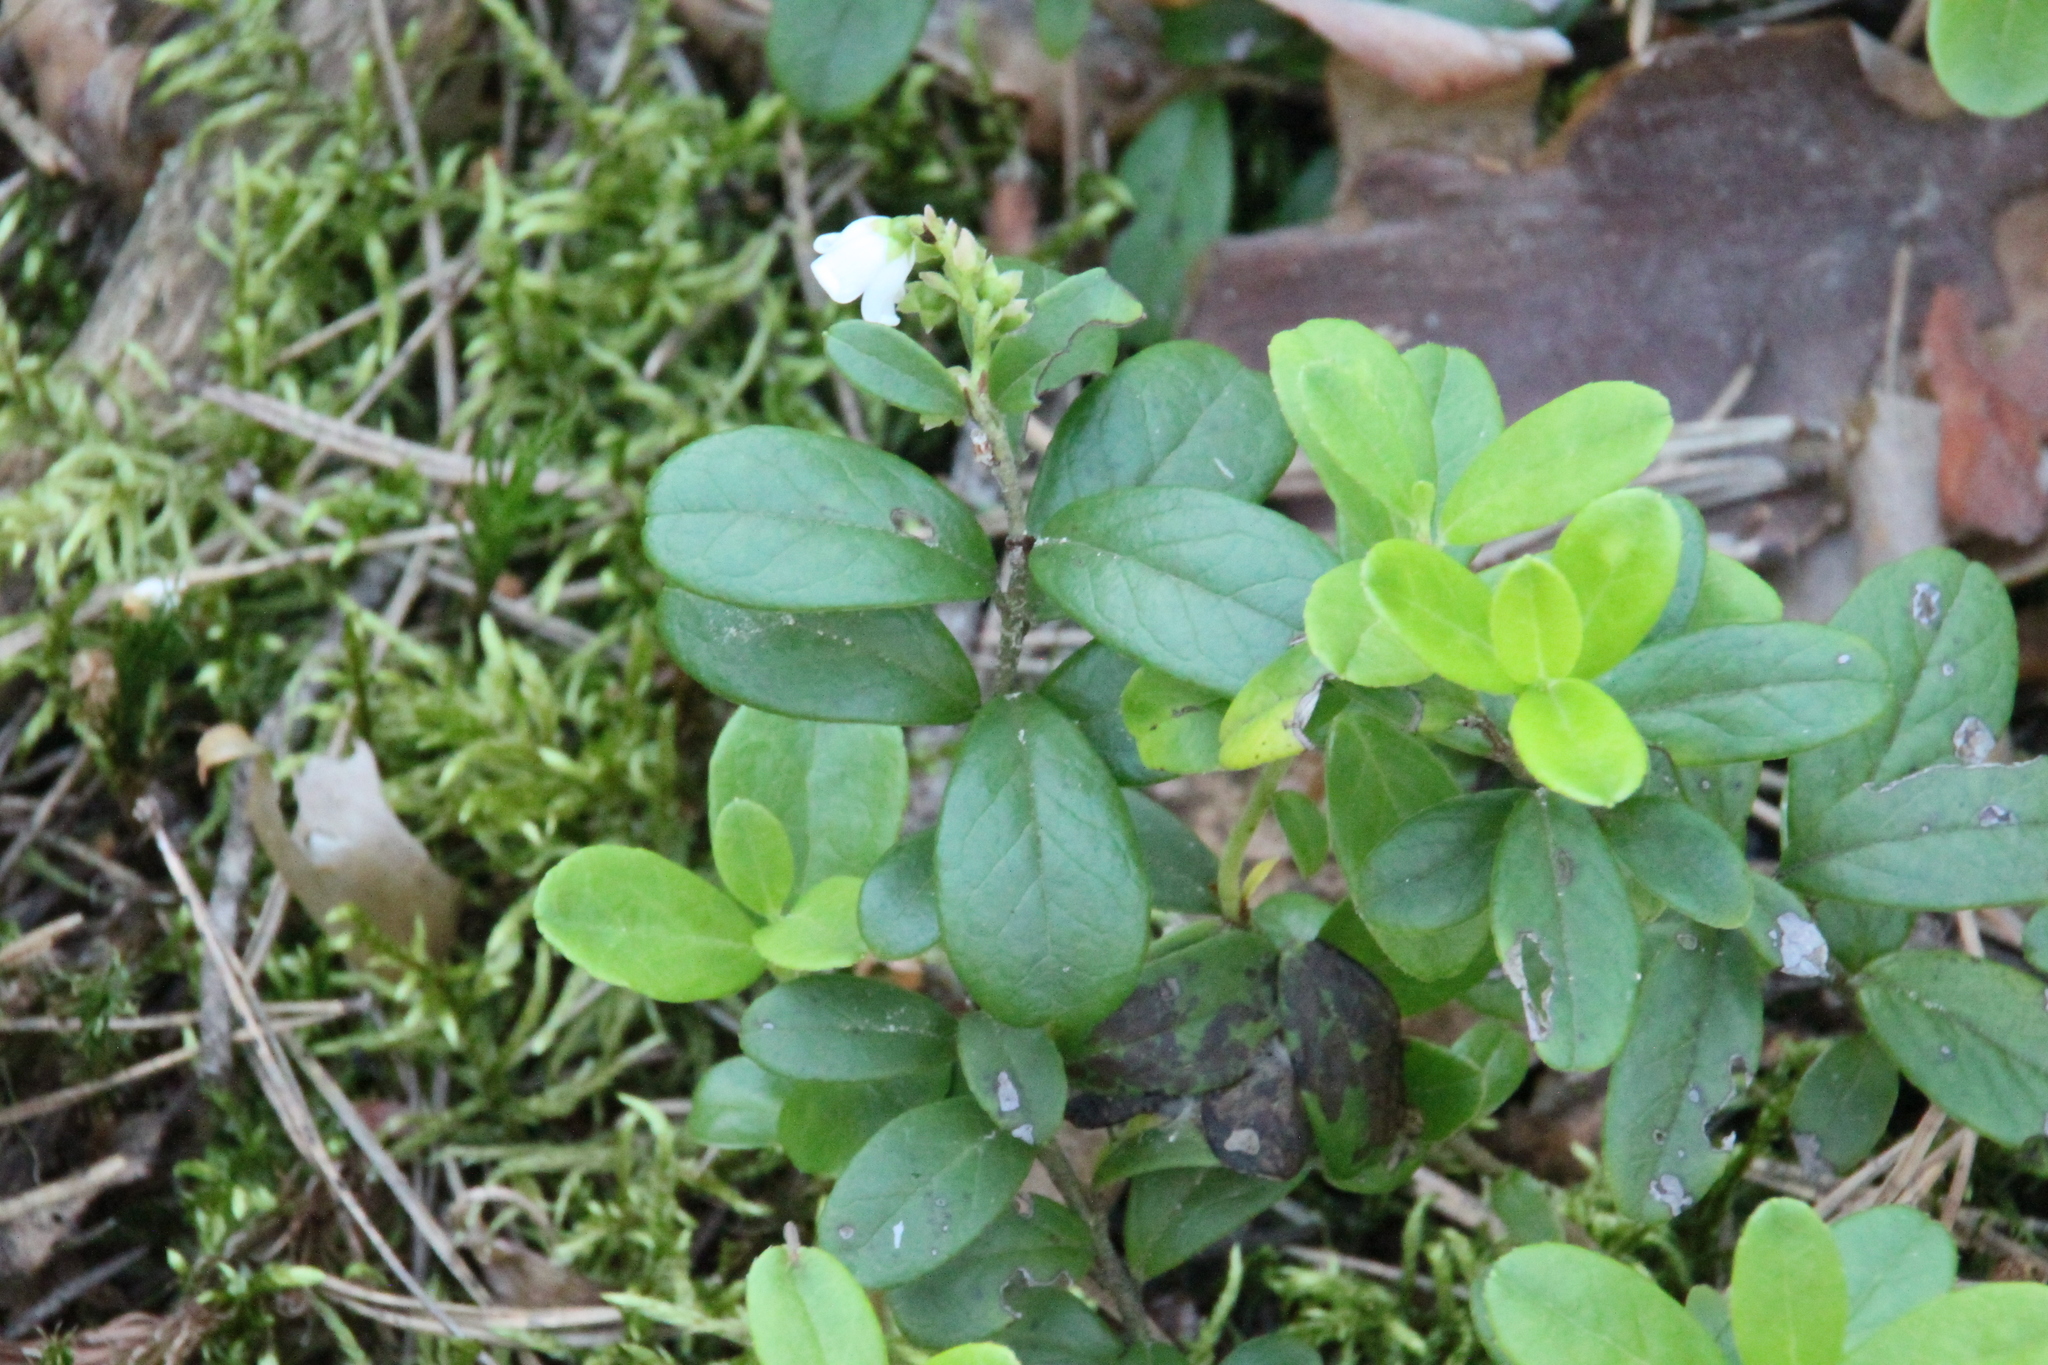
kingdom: Plantae
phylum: Tracheophyta
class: Magnoliopsida
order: Ericales
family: Ericaceae
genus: Vaccinium
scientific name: Vaccinium vitis-idaea
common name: Cowberry
